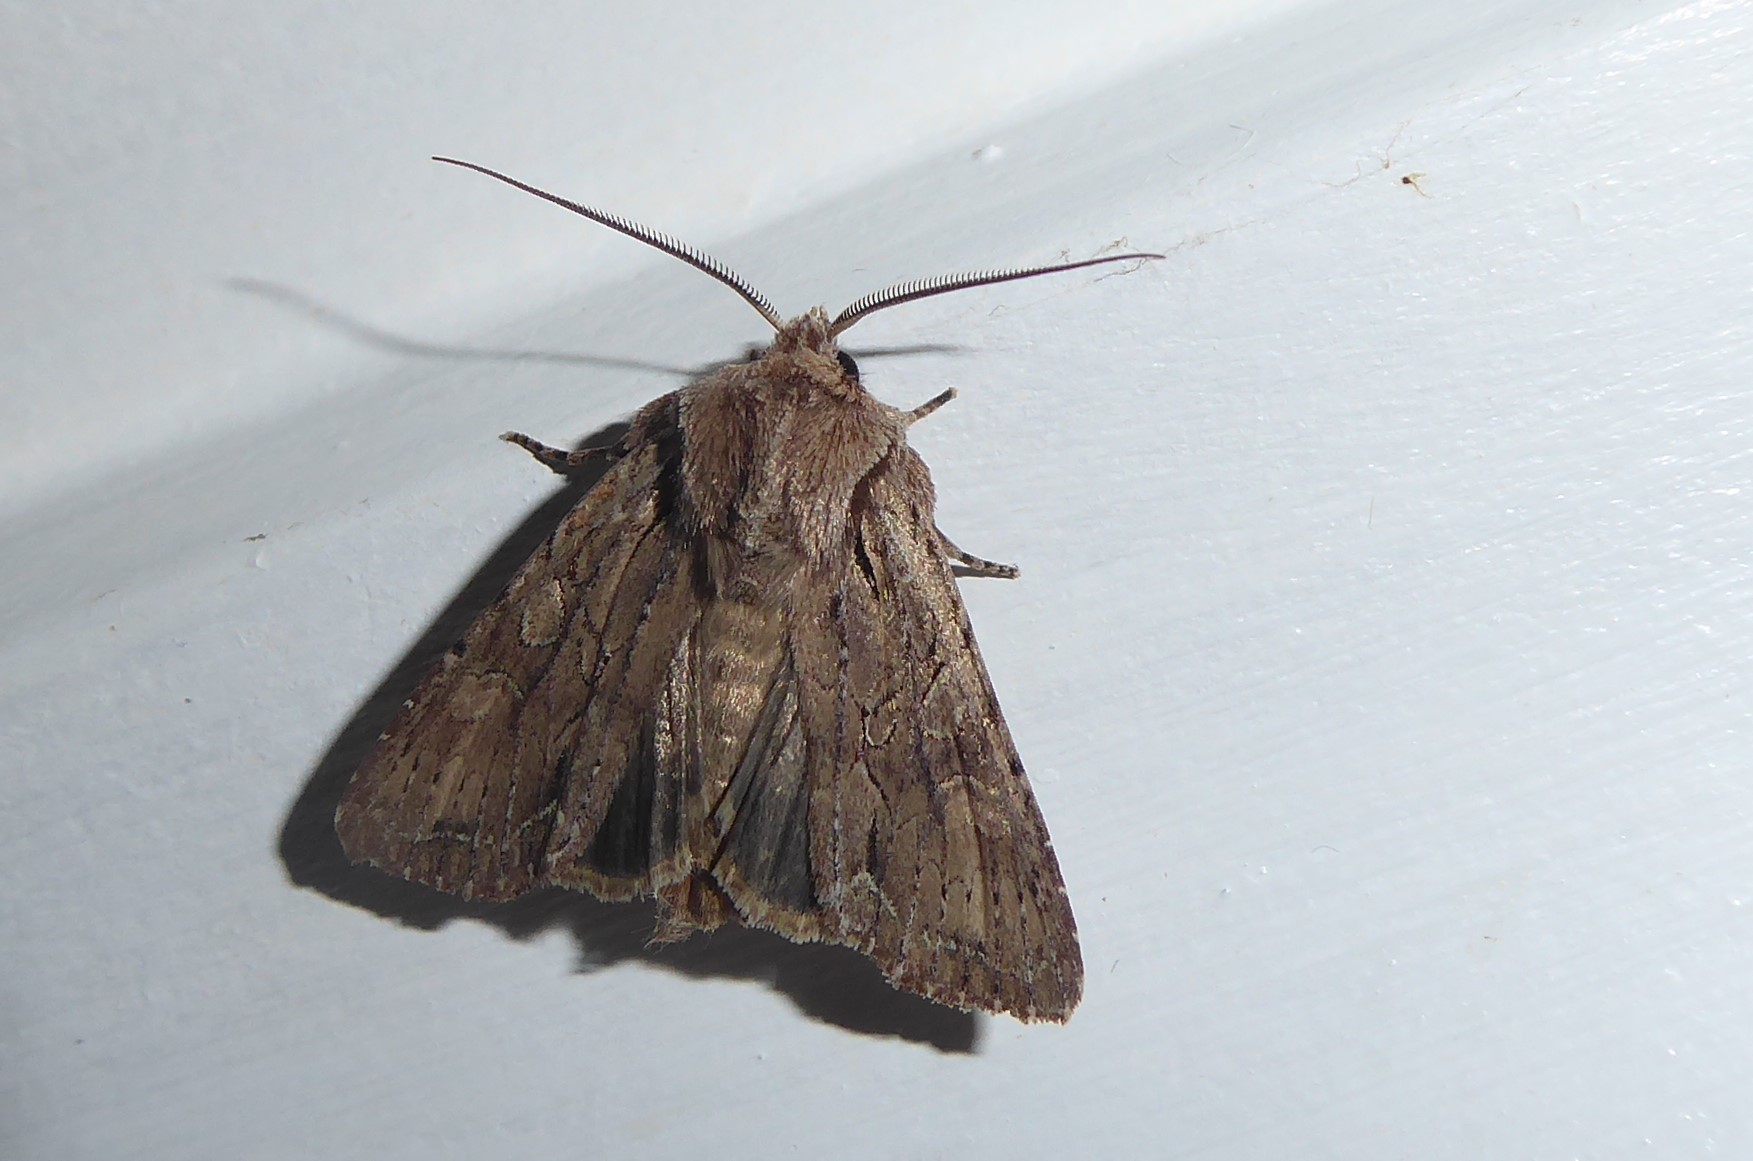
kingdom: Animalia
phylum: Arthropoda
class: Insecta
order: Lepidoptera
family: Noctuidae
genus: Ichneutica
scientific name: Ichneutica
